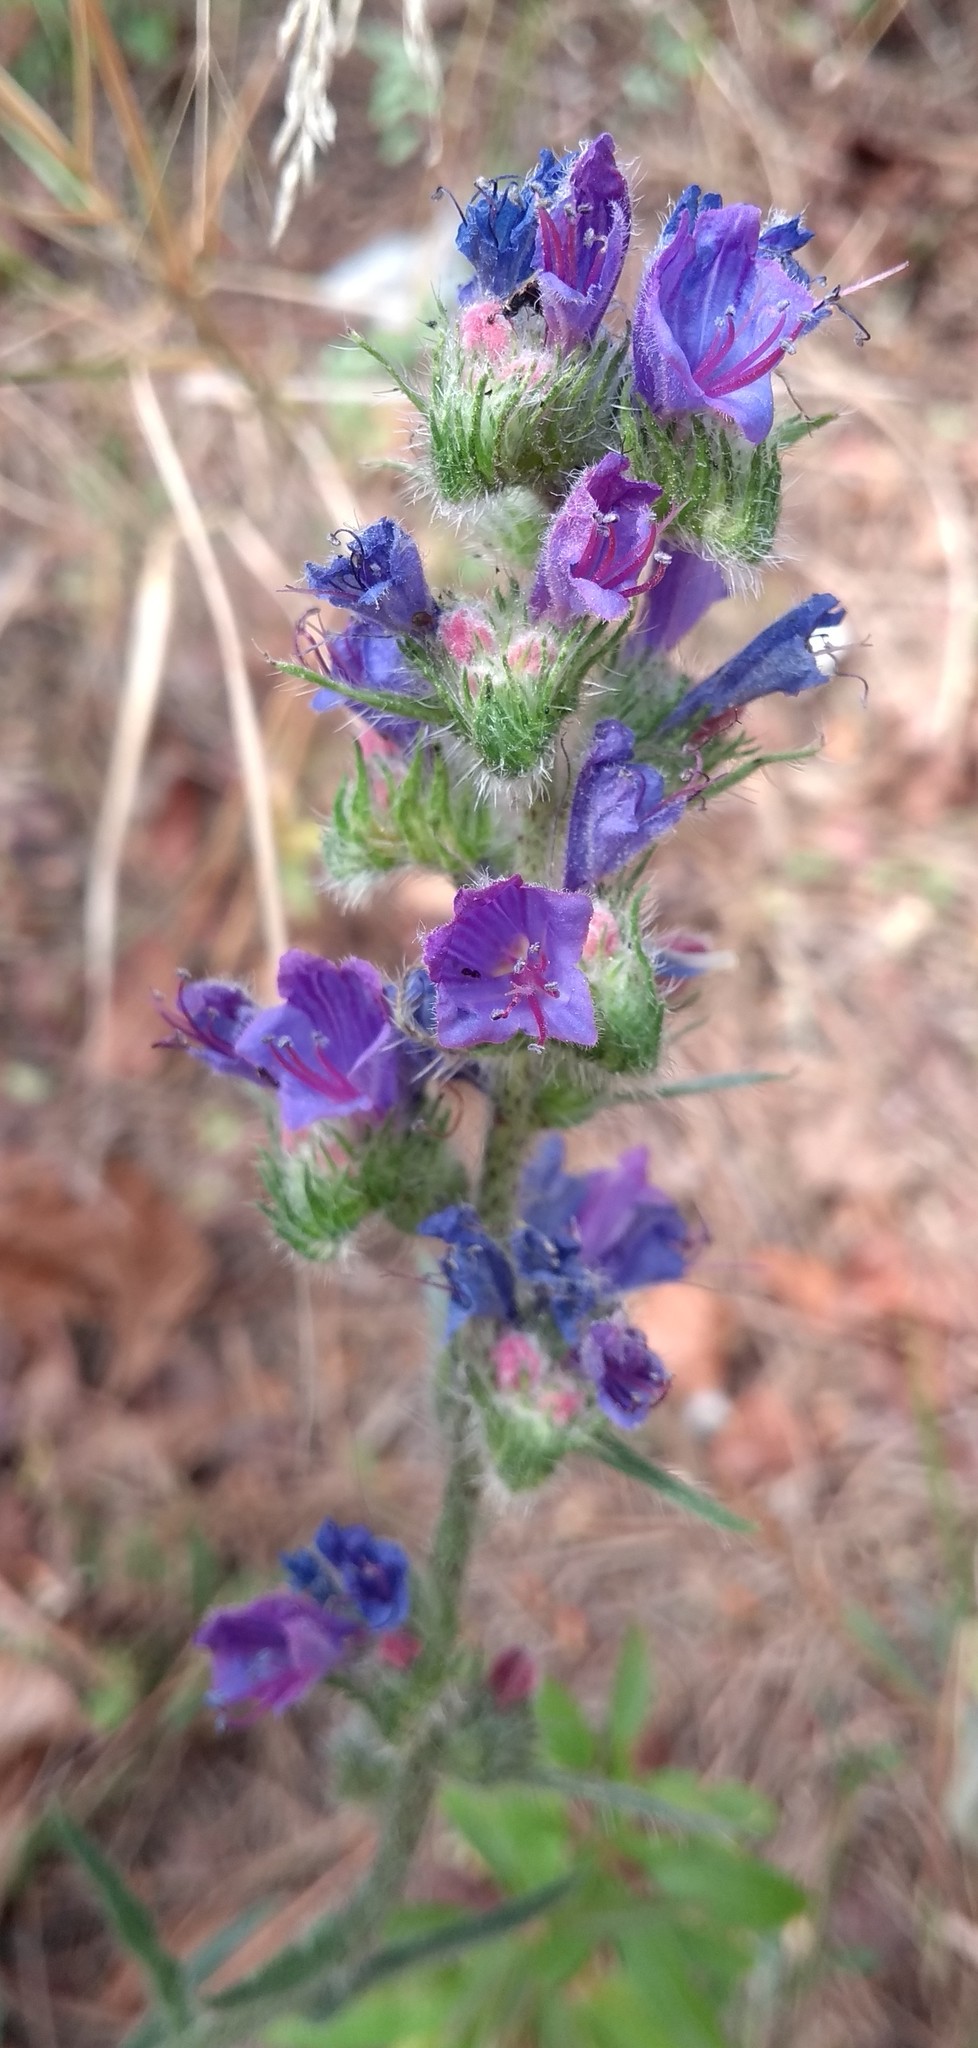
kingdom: Plantae
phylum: Tracheophyta
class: Magnoliopsida
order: Boraginales
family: Boraginaceae
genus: Echium
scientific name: Echium vulgare
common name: Common viper's bugloss
